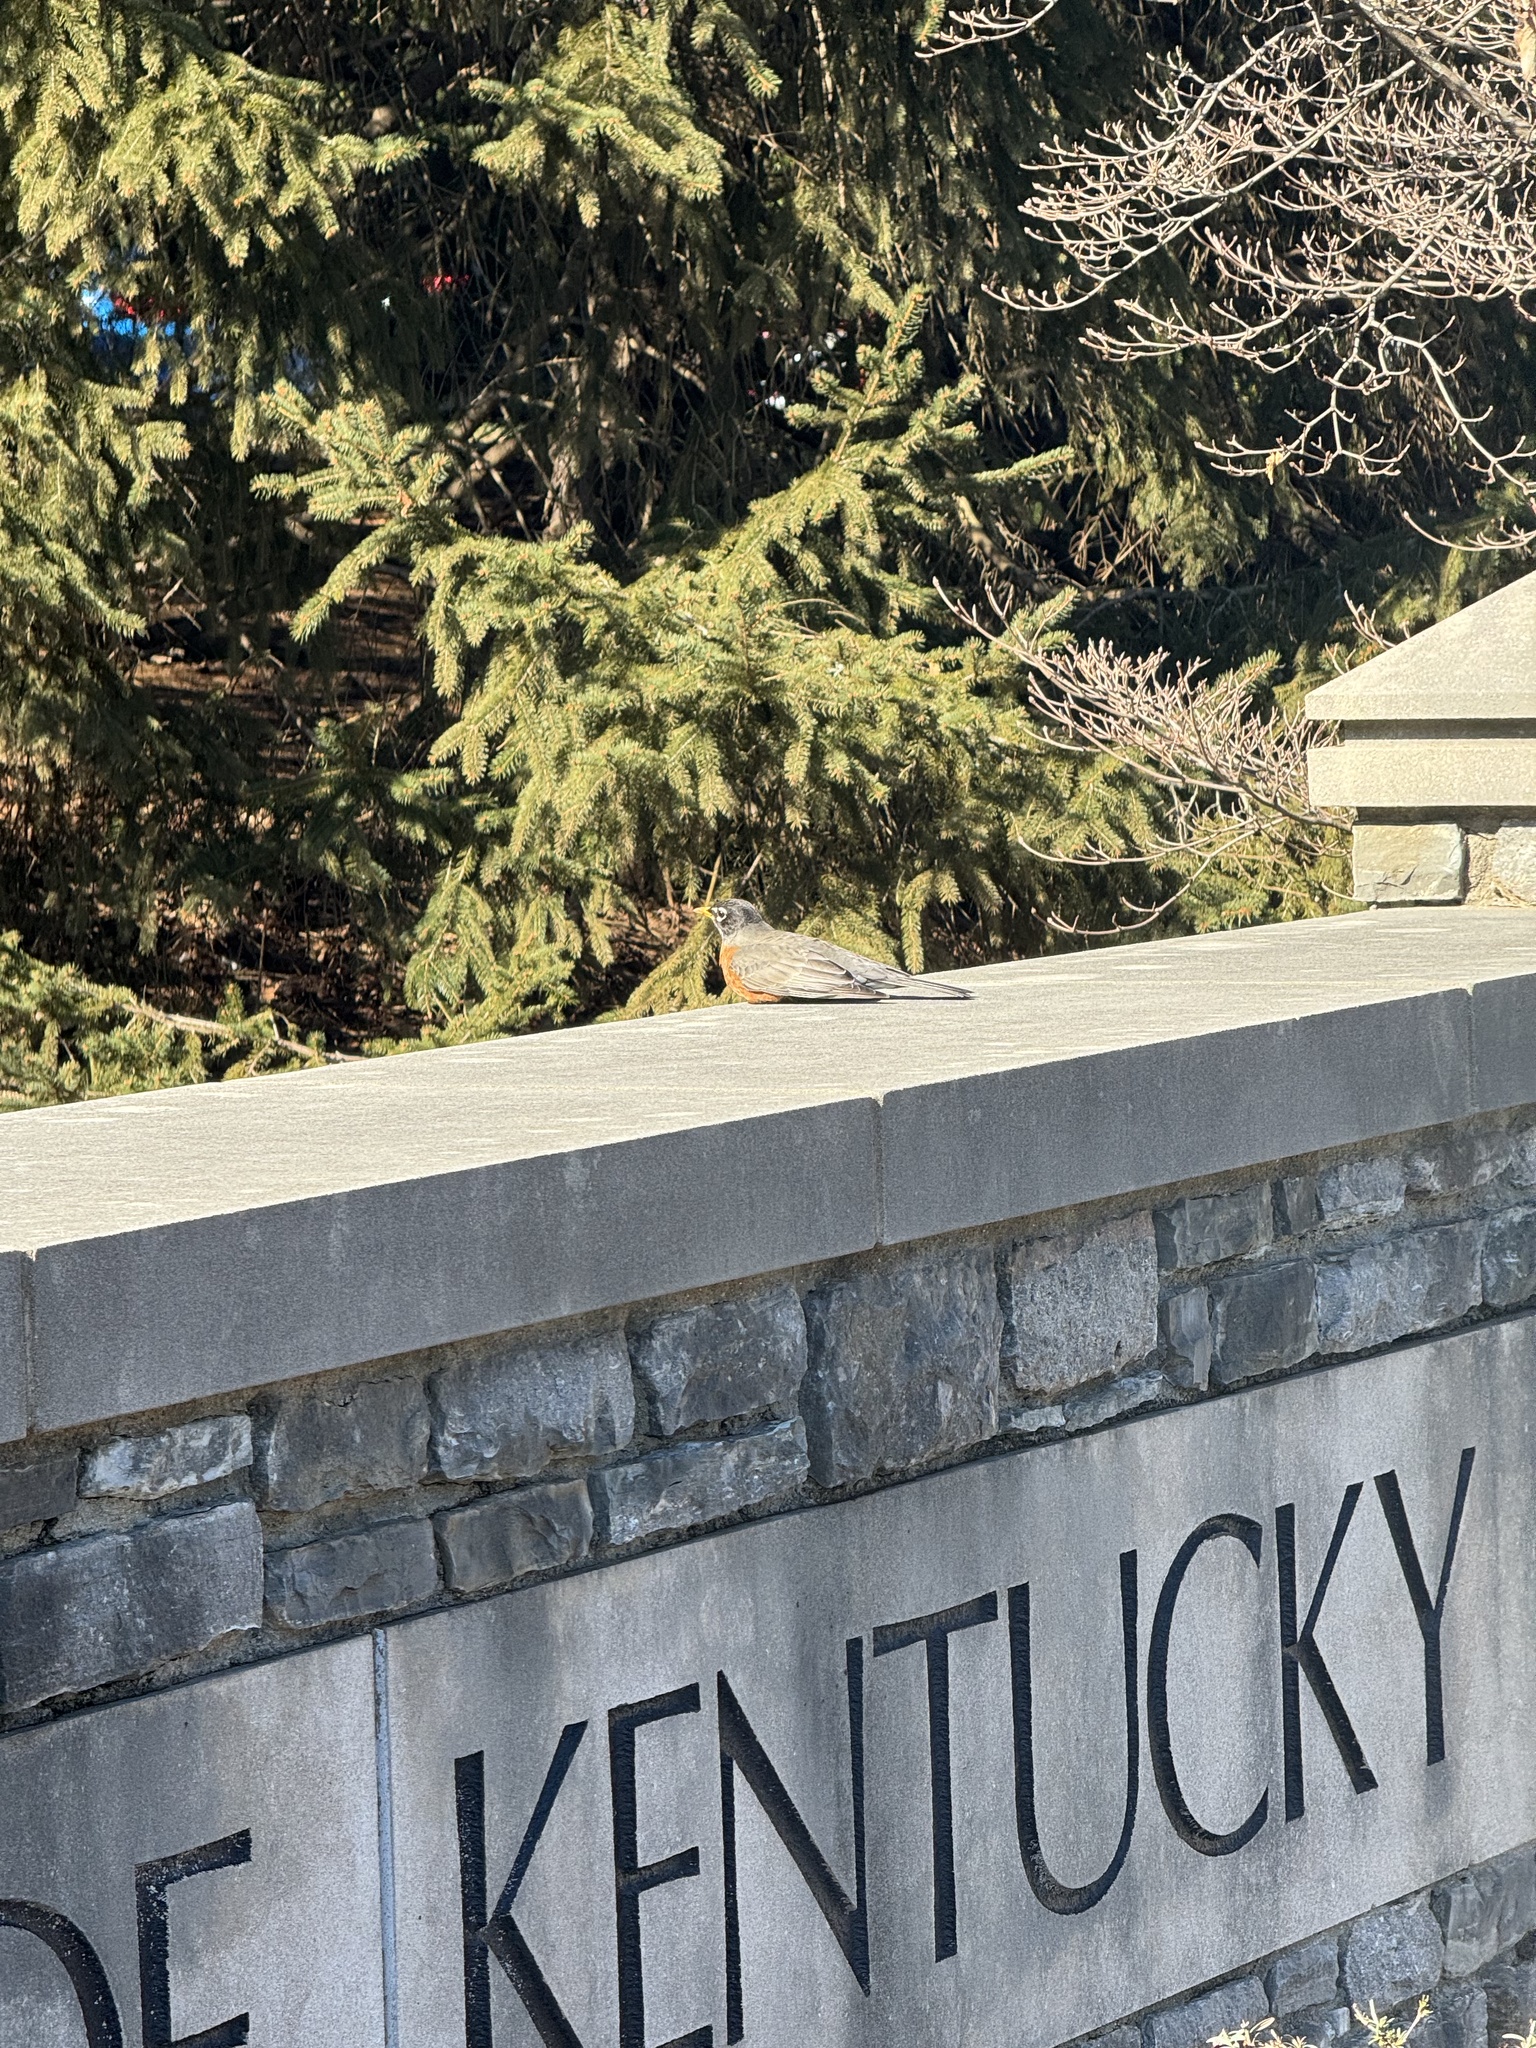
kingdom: Animalia
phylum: Chordata
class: Aves
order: Passeriformes
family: Turdidae
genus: Turdus
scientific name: Turdus migratorius
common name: American robin
